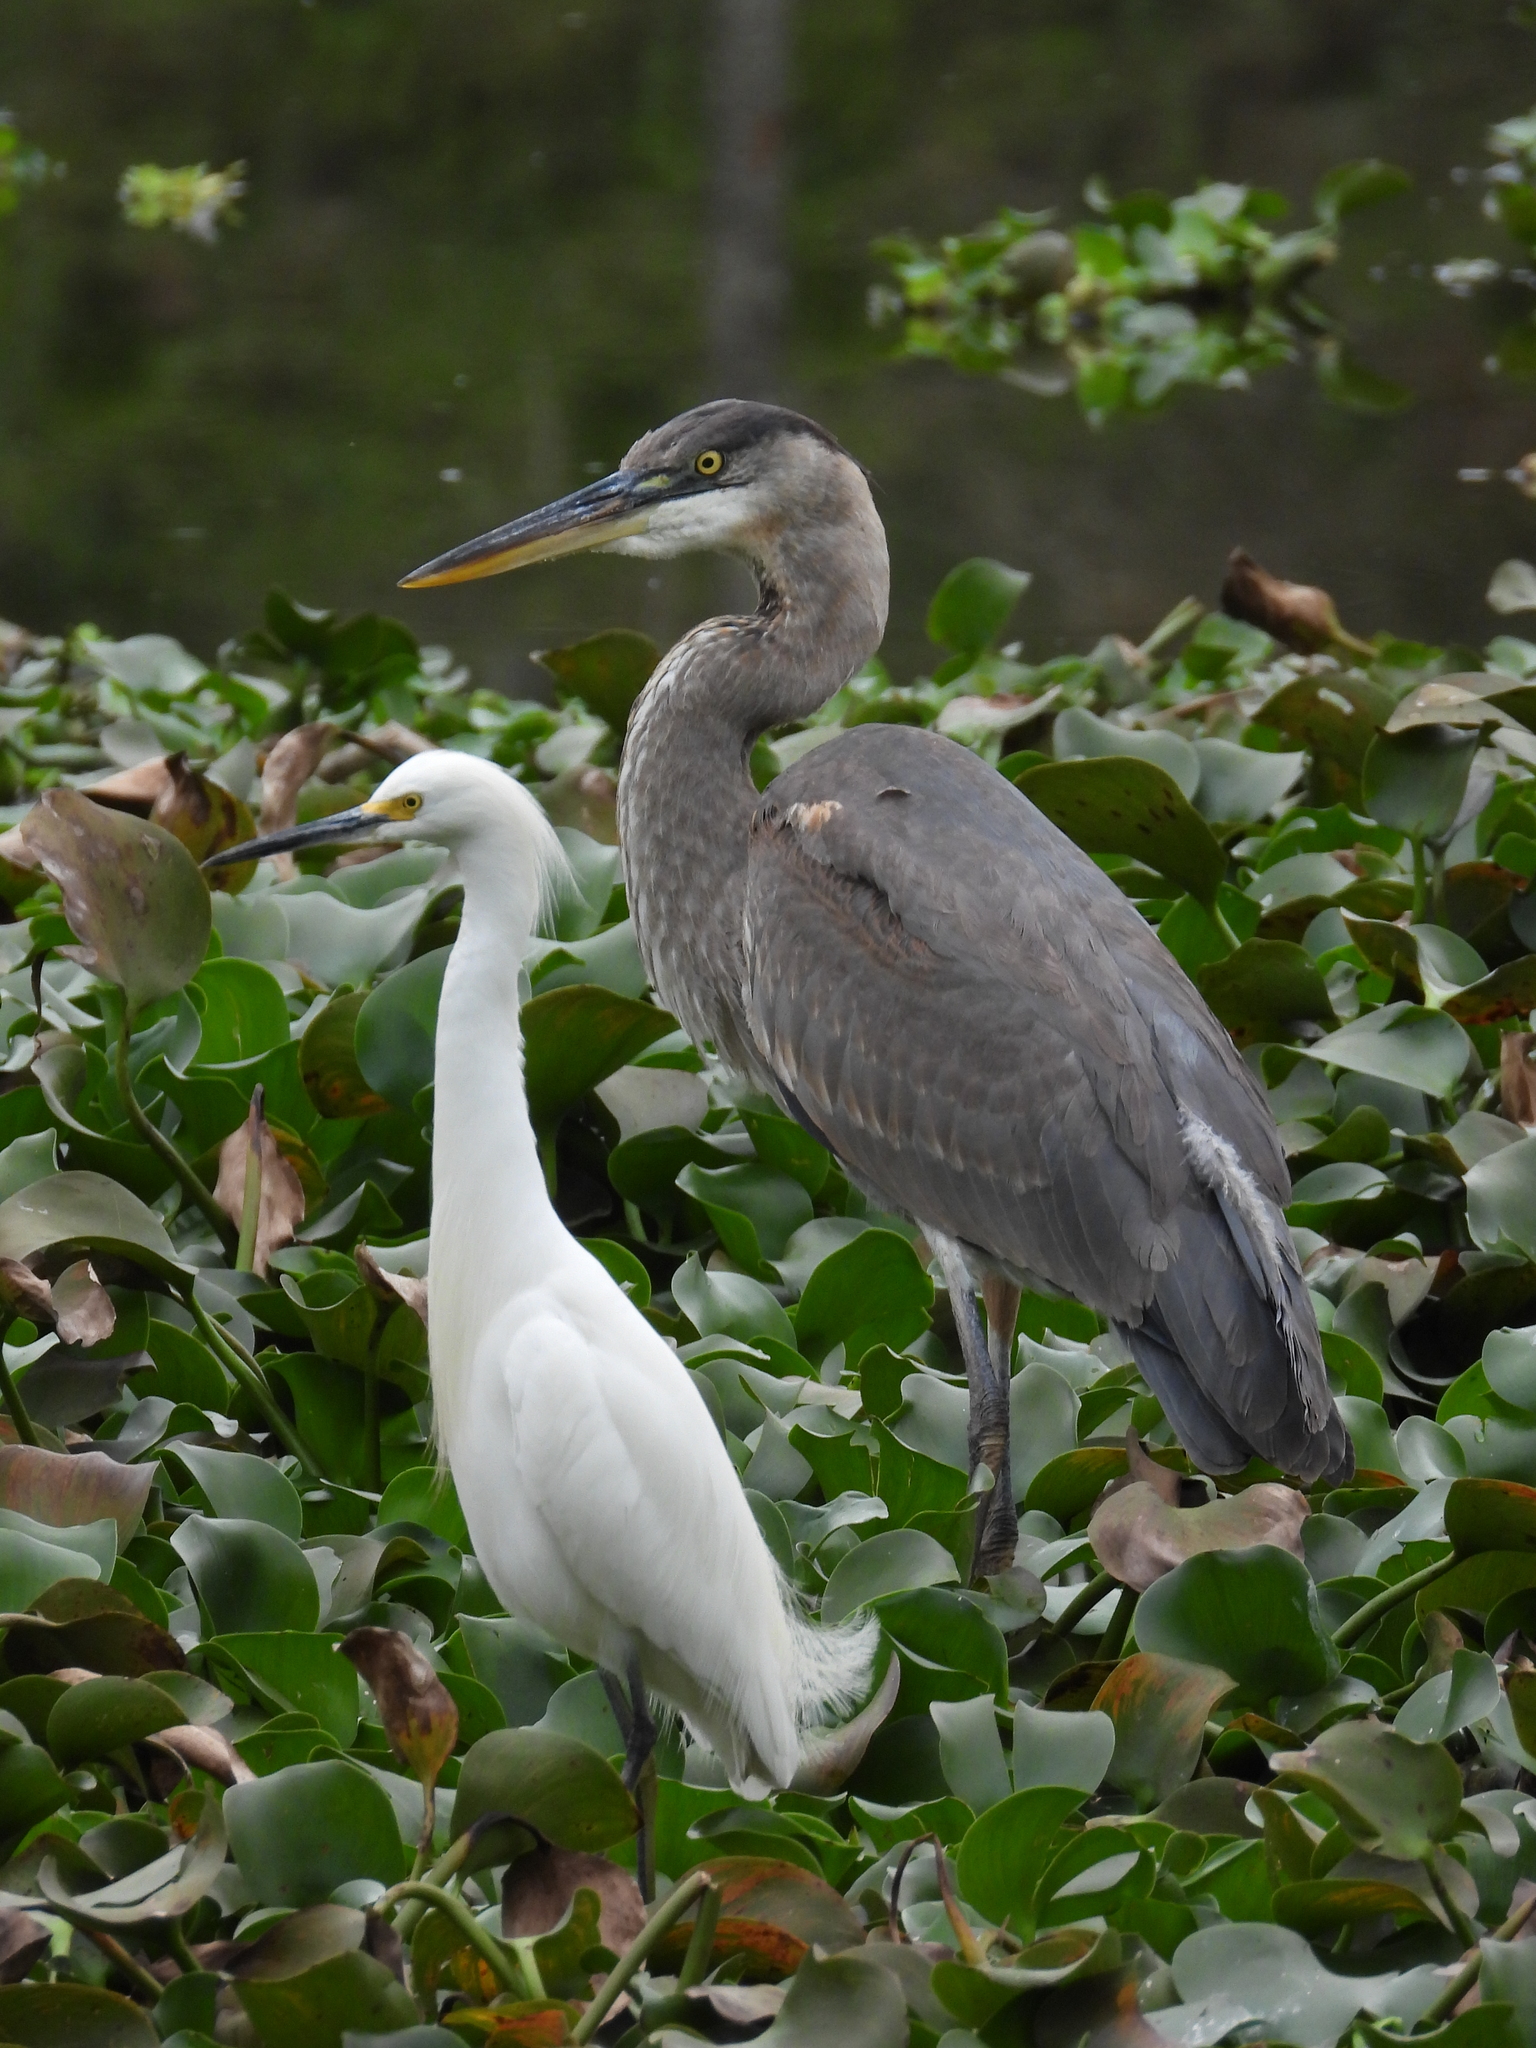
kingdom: Animalia
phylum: Chordata
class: Aves
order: Pelecaniformes
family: Ardeidae
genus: Ardea
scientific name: Ardea herodias
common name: Great blue heron
